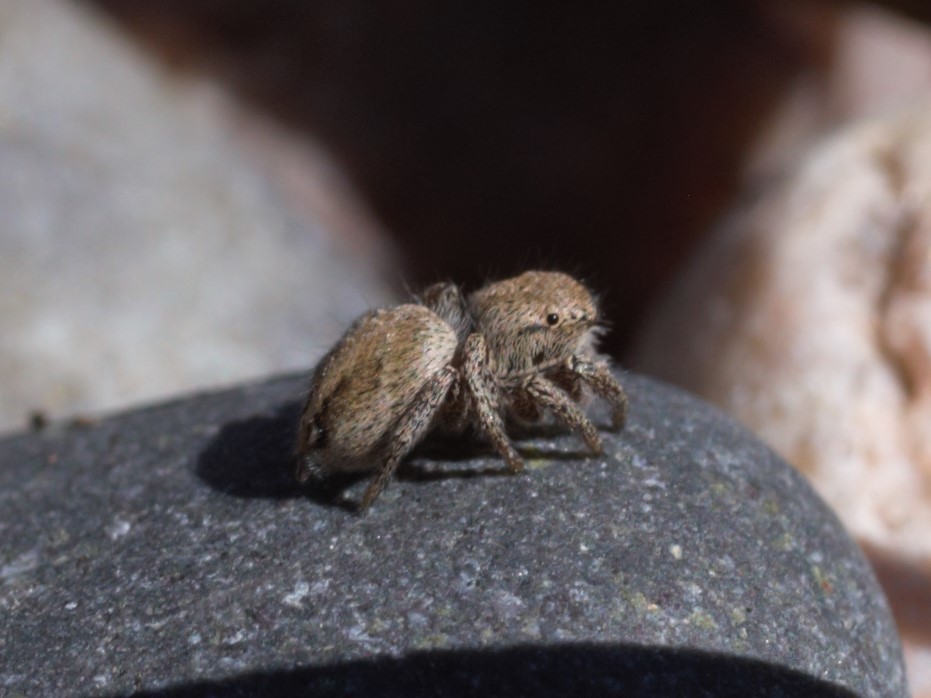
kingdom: Animalia
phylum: Arthropoda
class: Arachnida
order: Araneae
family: Salticidae
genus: Habronattus
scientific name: Habronattus festus
